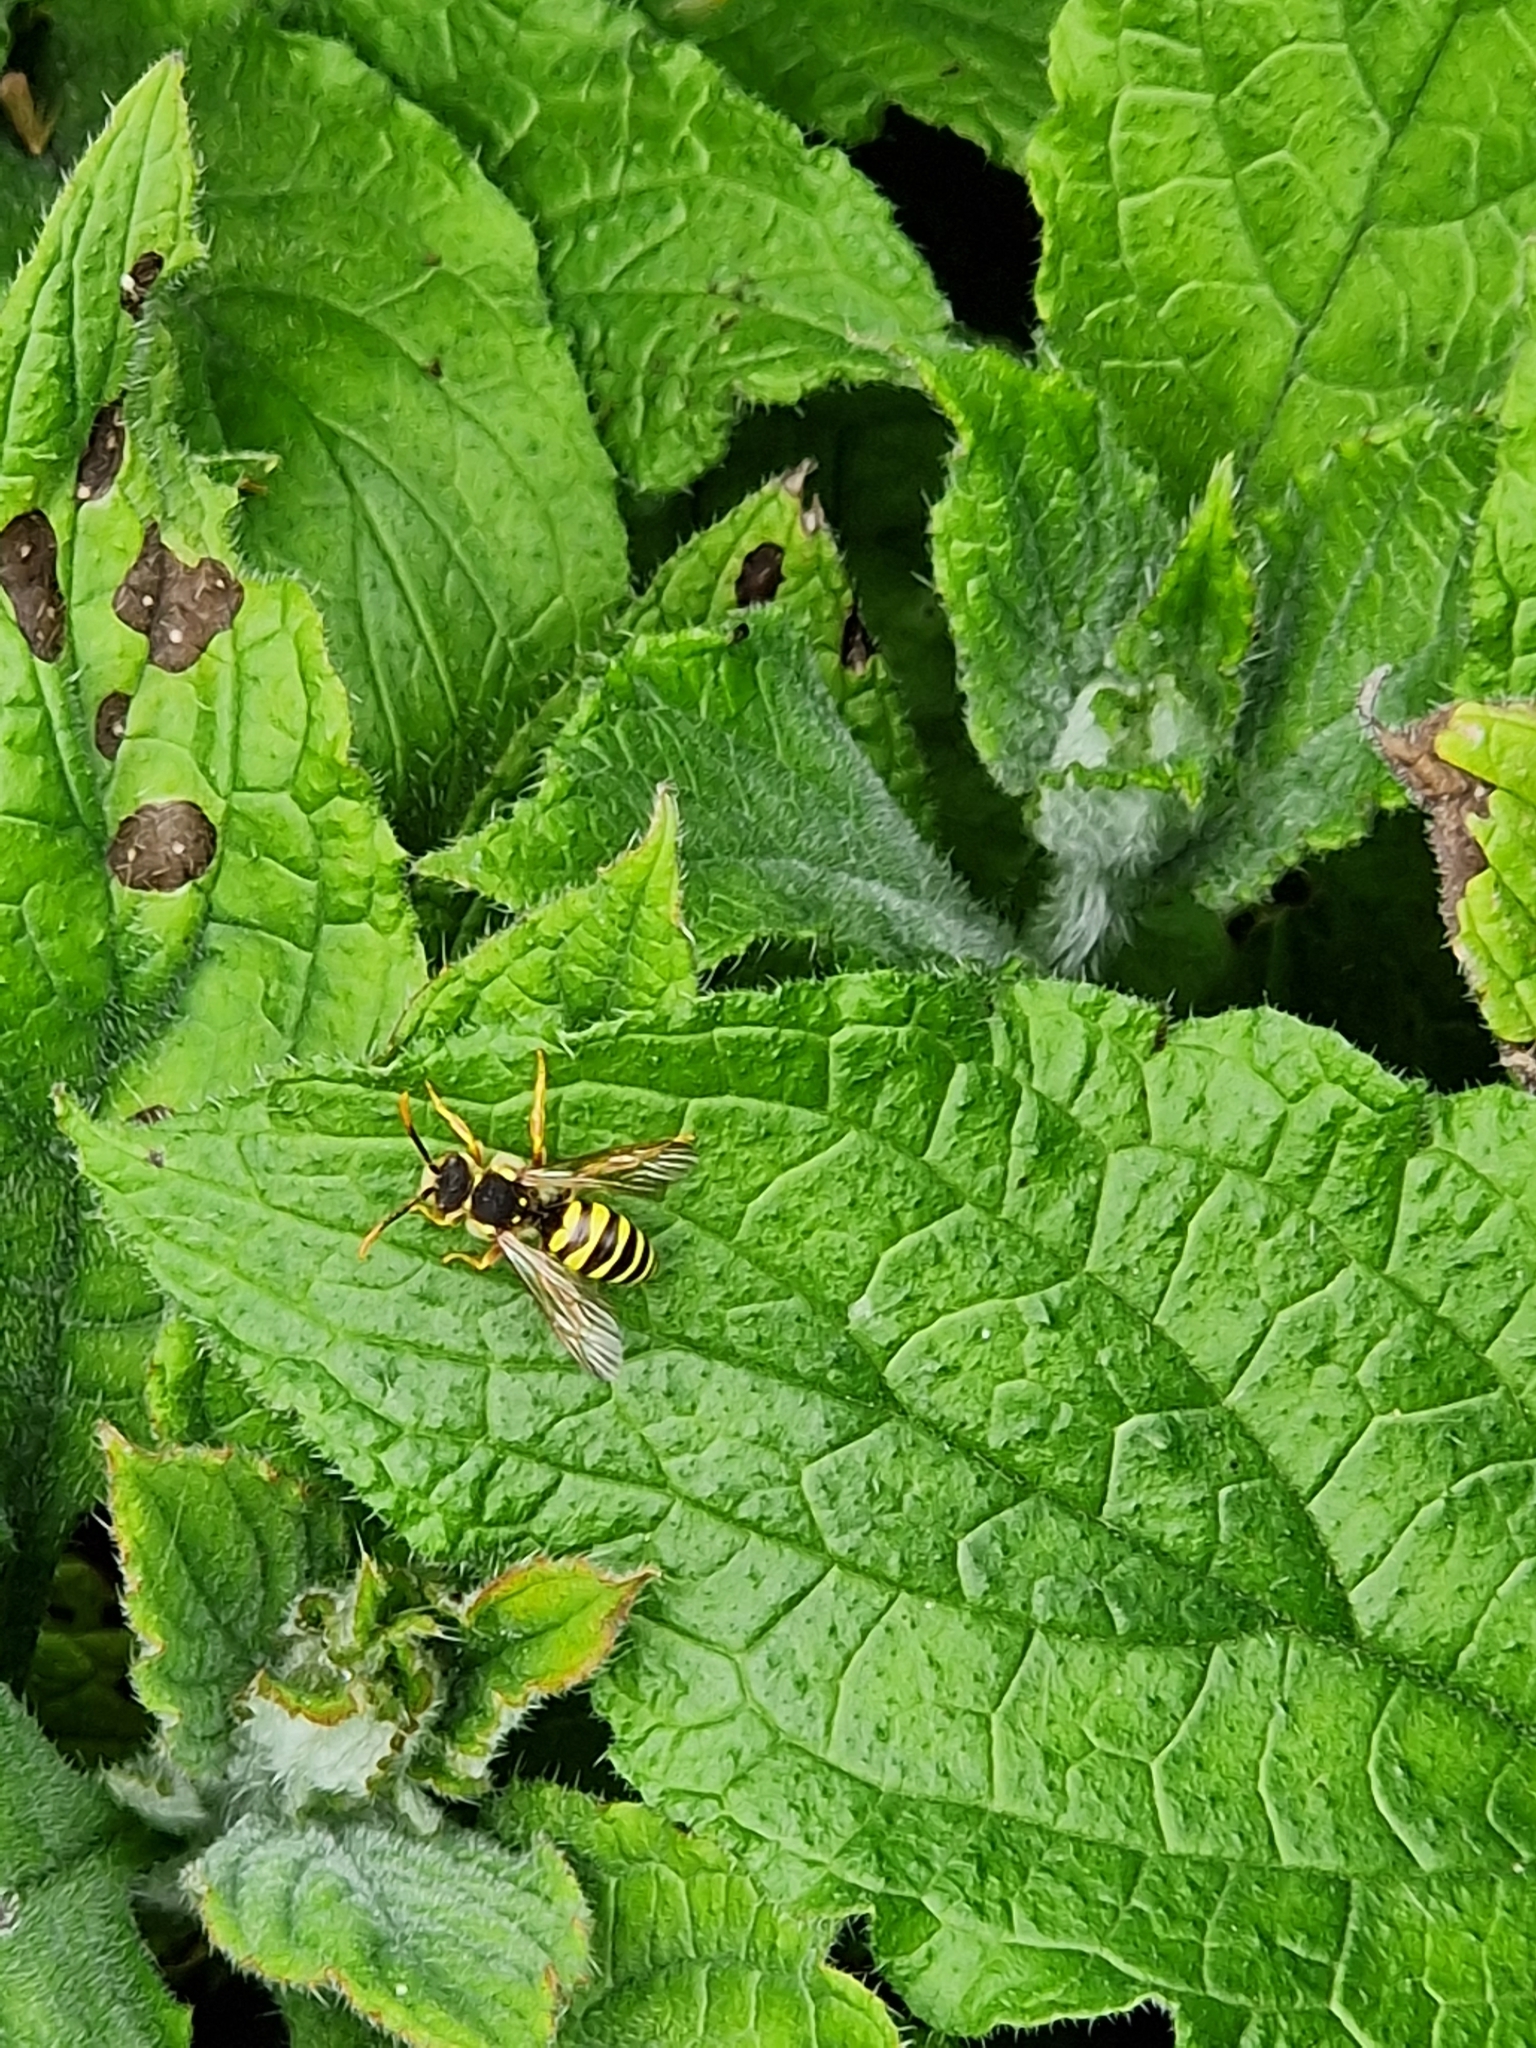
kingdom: Animalia
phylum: Arthropoda
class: Insecta
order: Hymenoptera
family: Apidae
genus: Nomada
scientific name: Nomada goodeniana
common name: Gooden's nomad bee
